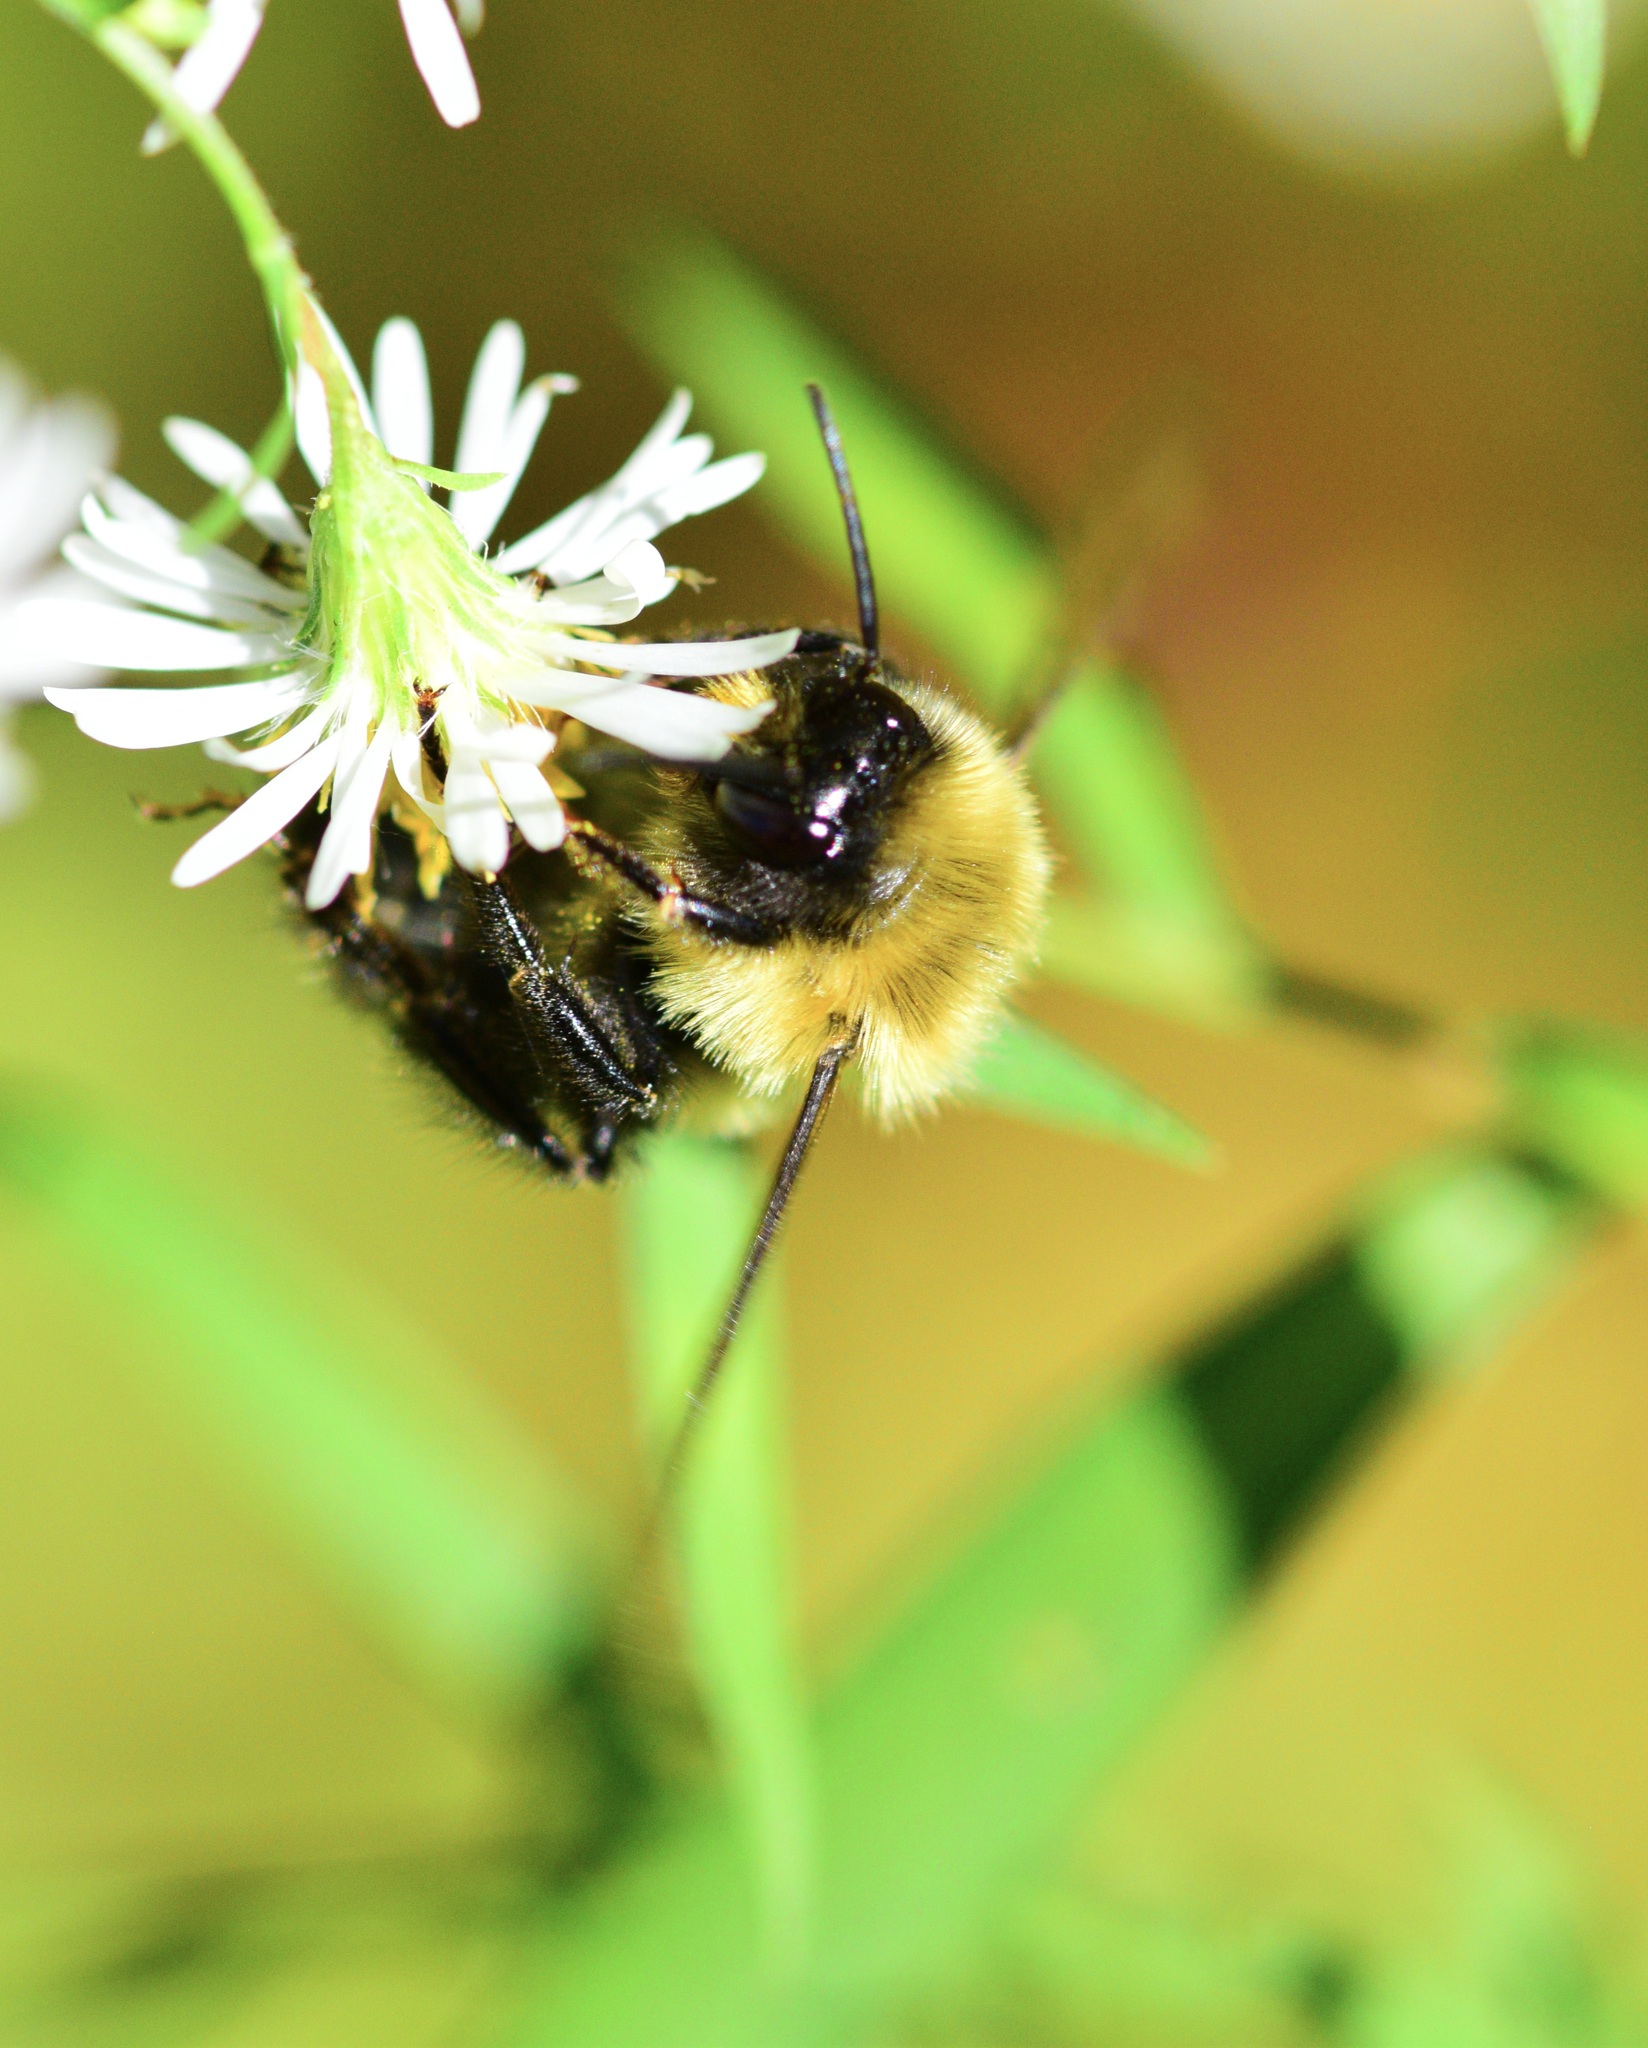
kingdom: Animalia
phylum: Arthropoda
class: Insecta
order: Hymenoptera
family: Apidae
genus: Bombus
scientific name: Bombus impatiens
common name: Common eastern bumble bee
